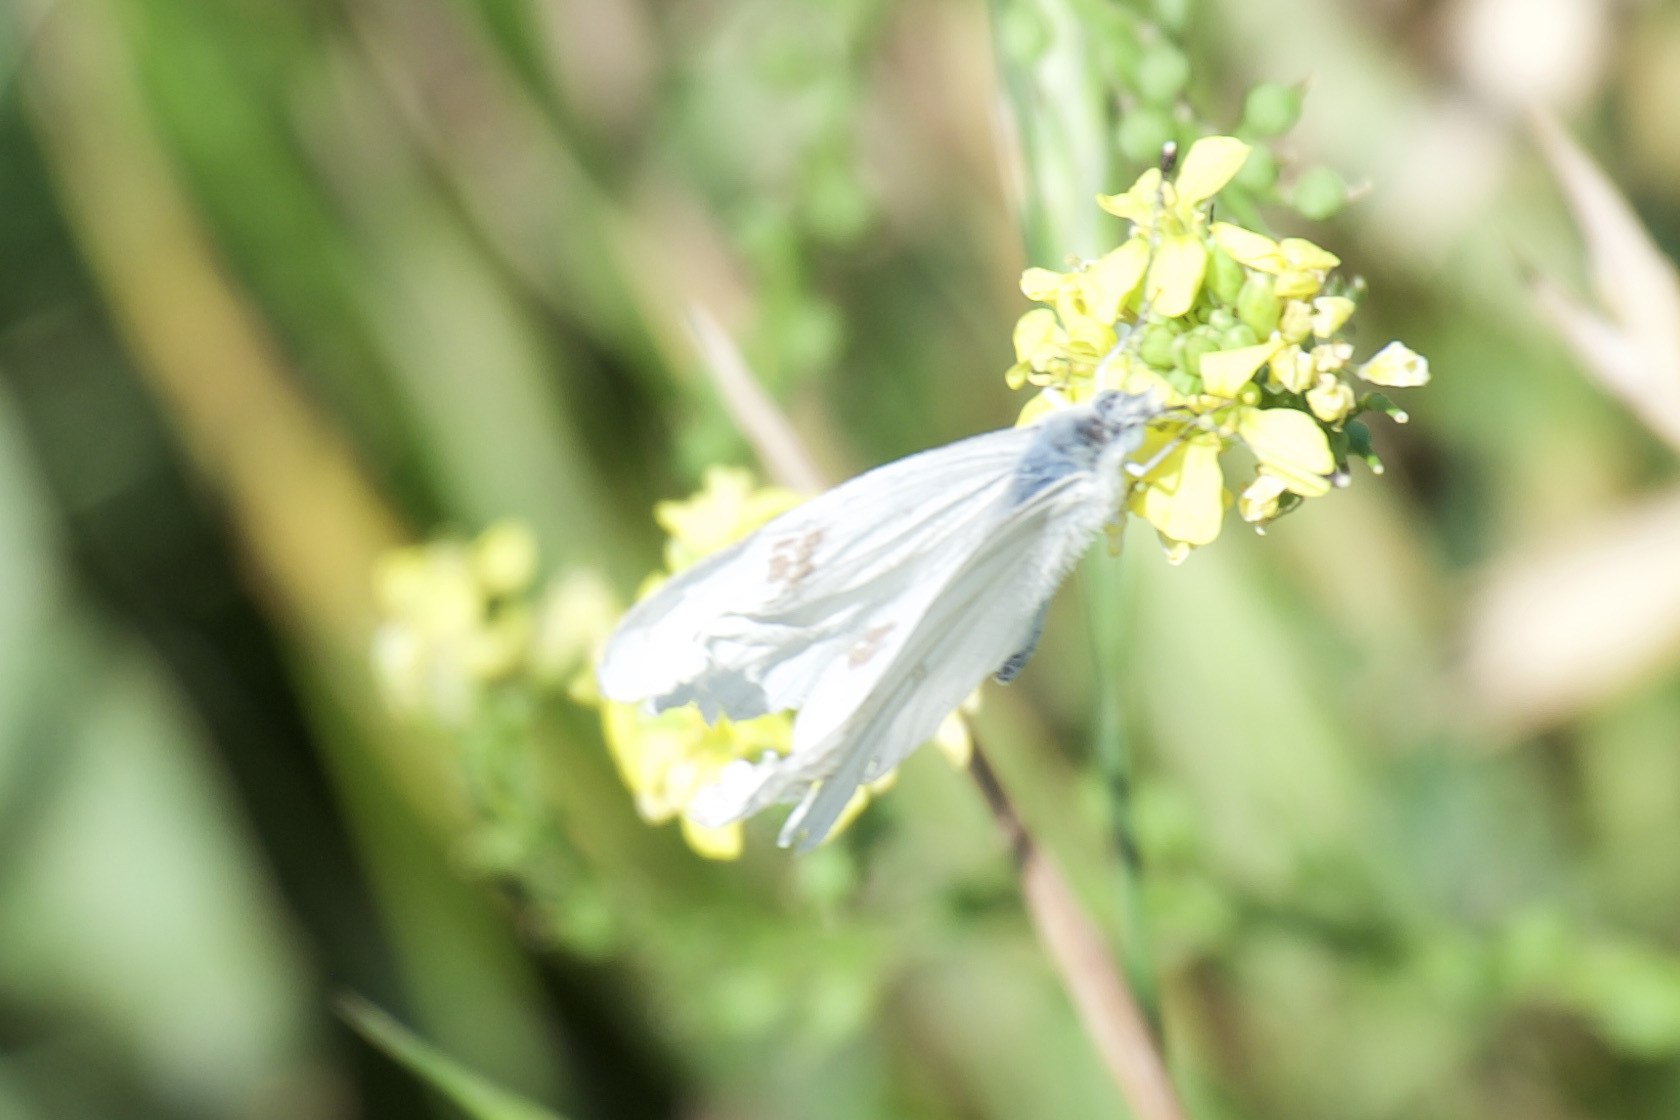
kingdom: Animalia
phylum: Arthropoda
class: Insecta
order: Lepidoptera
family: Pieridae
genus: Pontia
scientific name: Pontia protodice
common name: Checkered white
